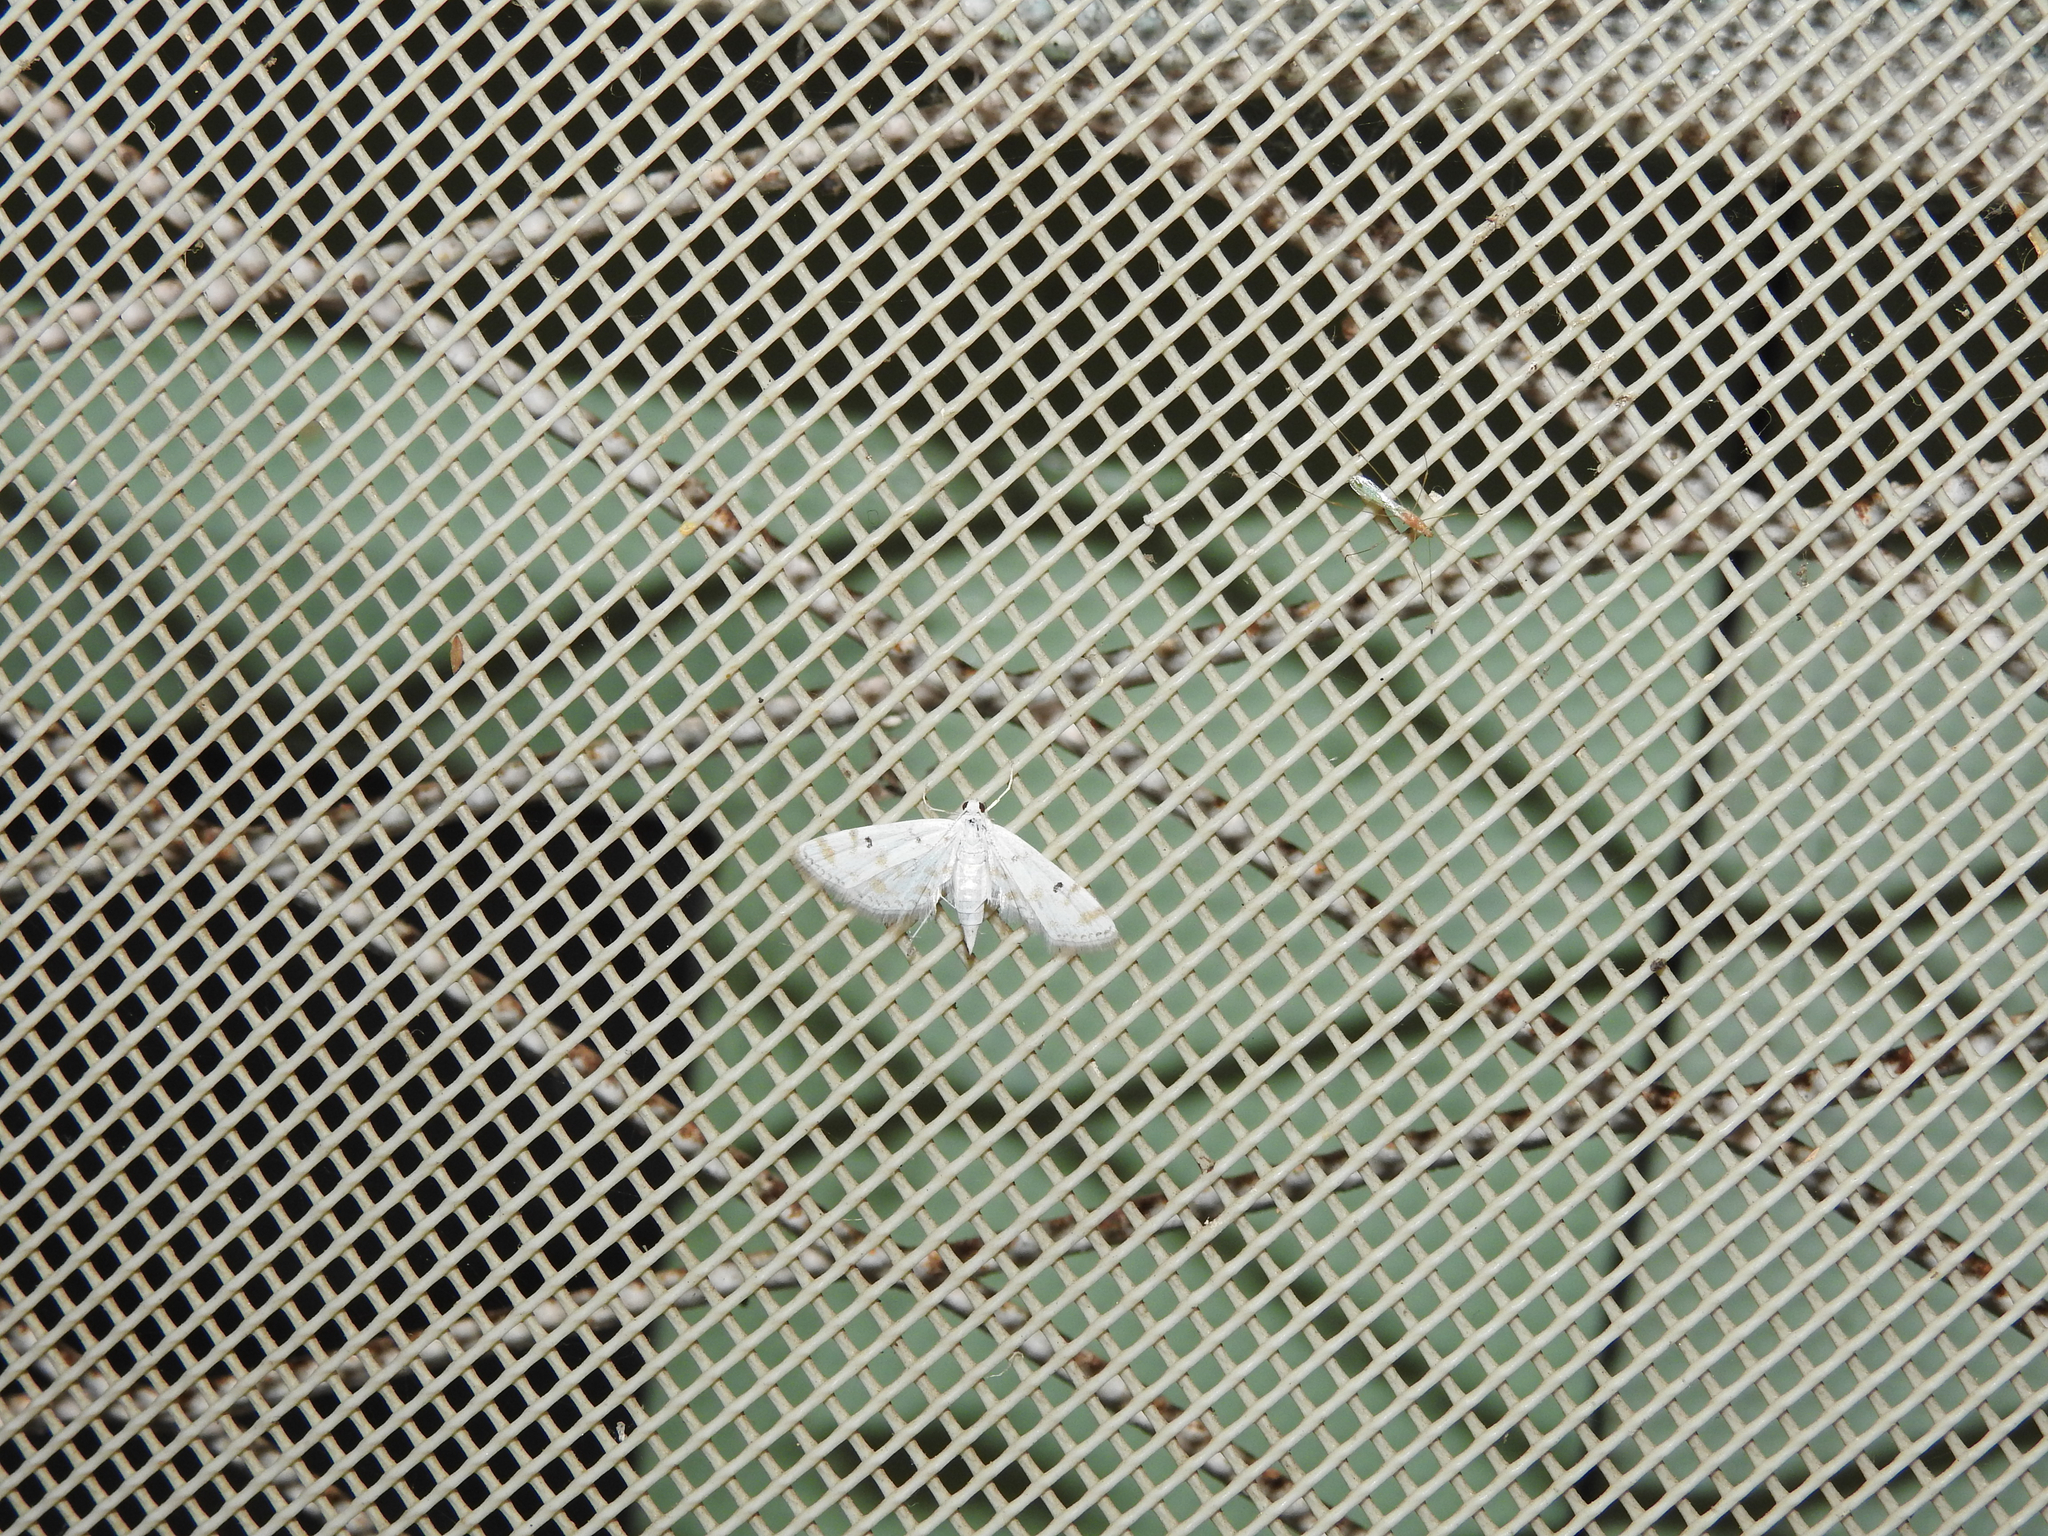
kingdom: Animalia
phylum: Arthropoda
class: Insecta
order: Lepidoptera
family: Crambidae
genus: Parapoynx
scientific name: Parapoynx stagnalis
